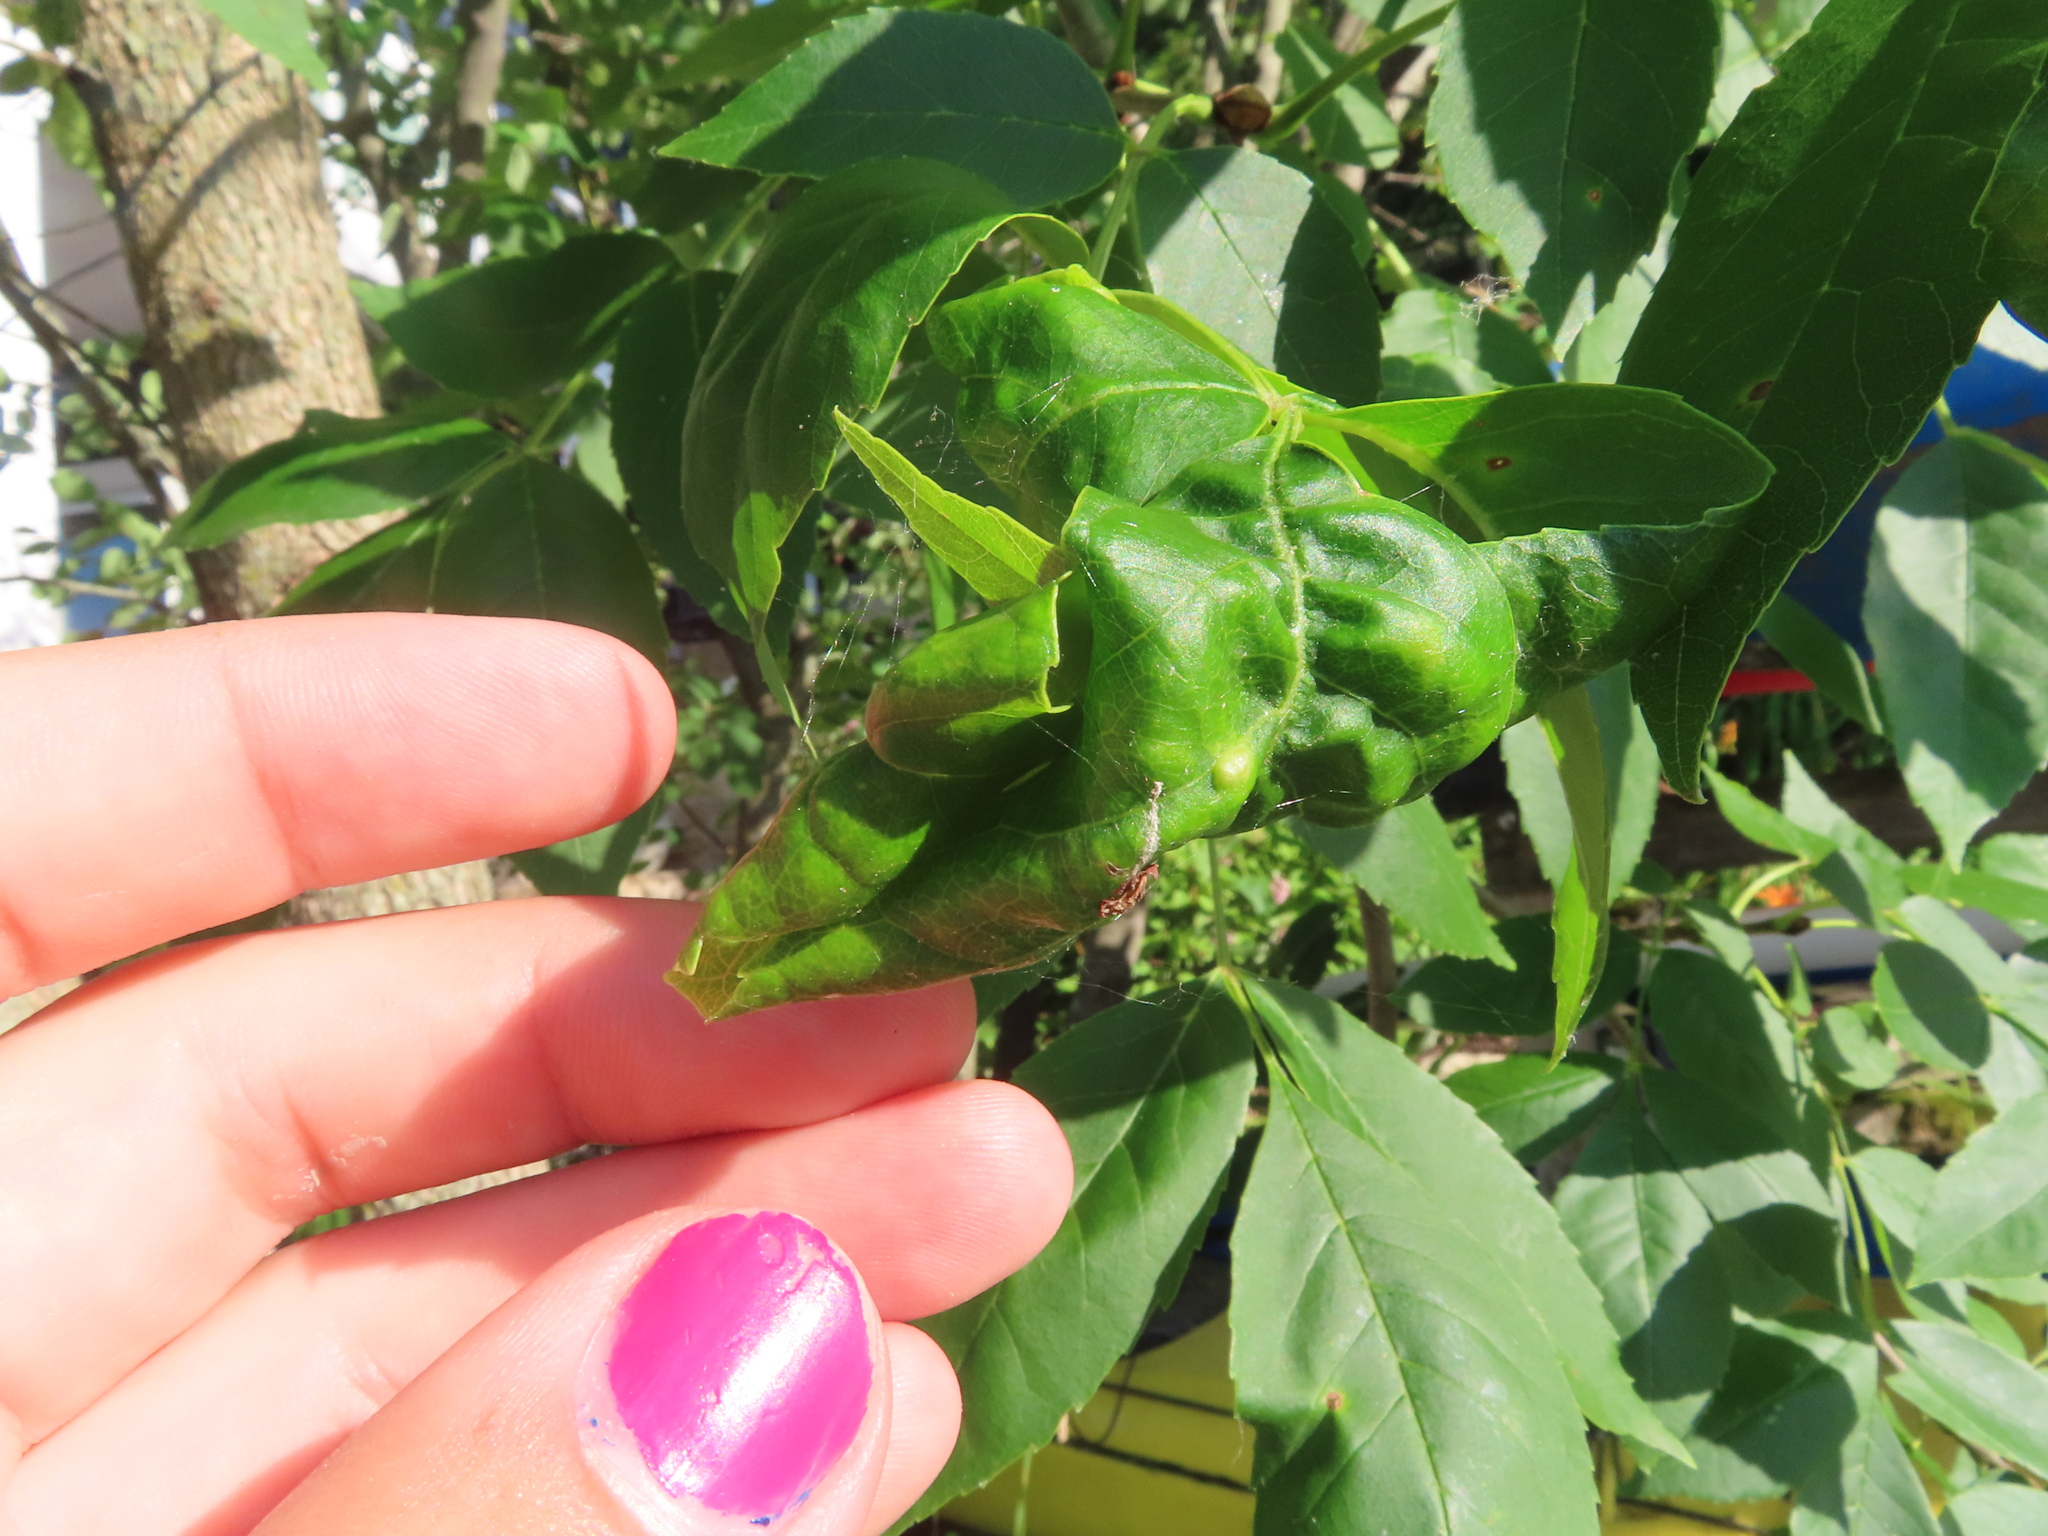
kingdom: Animalia
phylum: Arthropoda
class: Insecta
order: Hemiptera
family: Aphididae
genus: Prociphilus
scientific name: Prociphilus fraxinifolii
